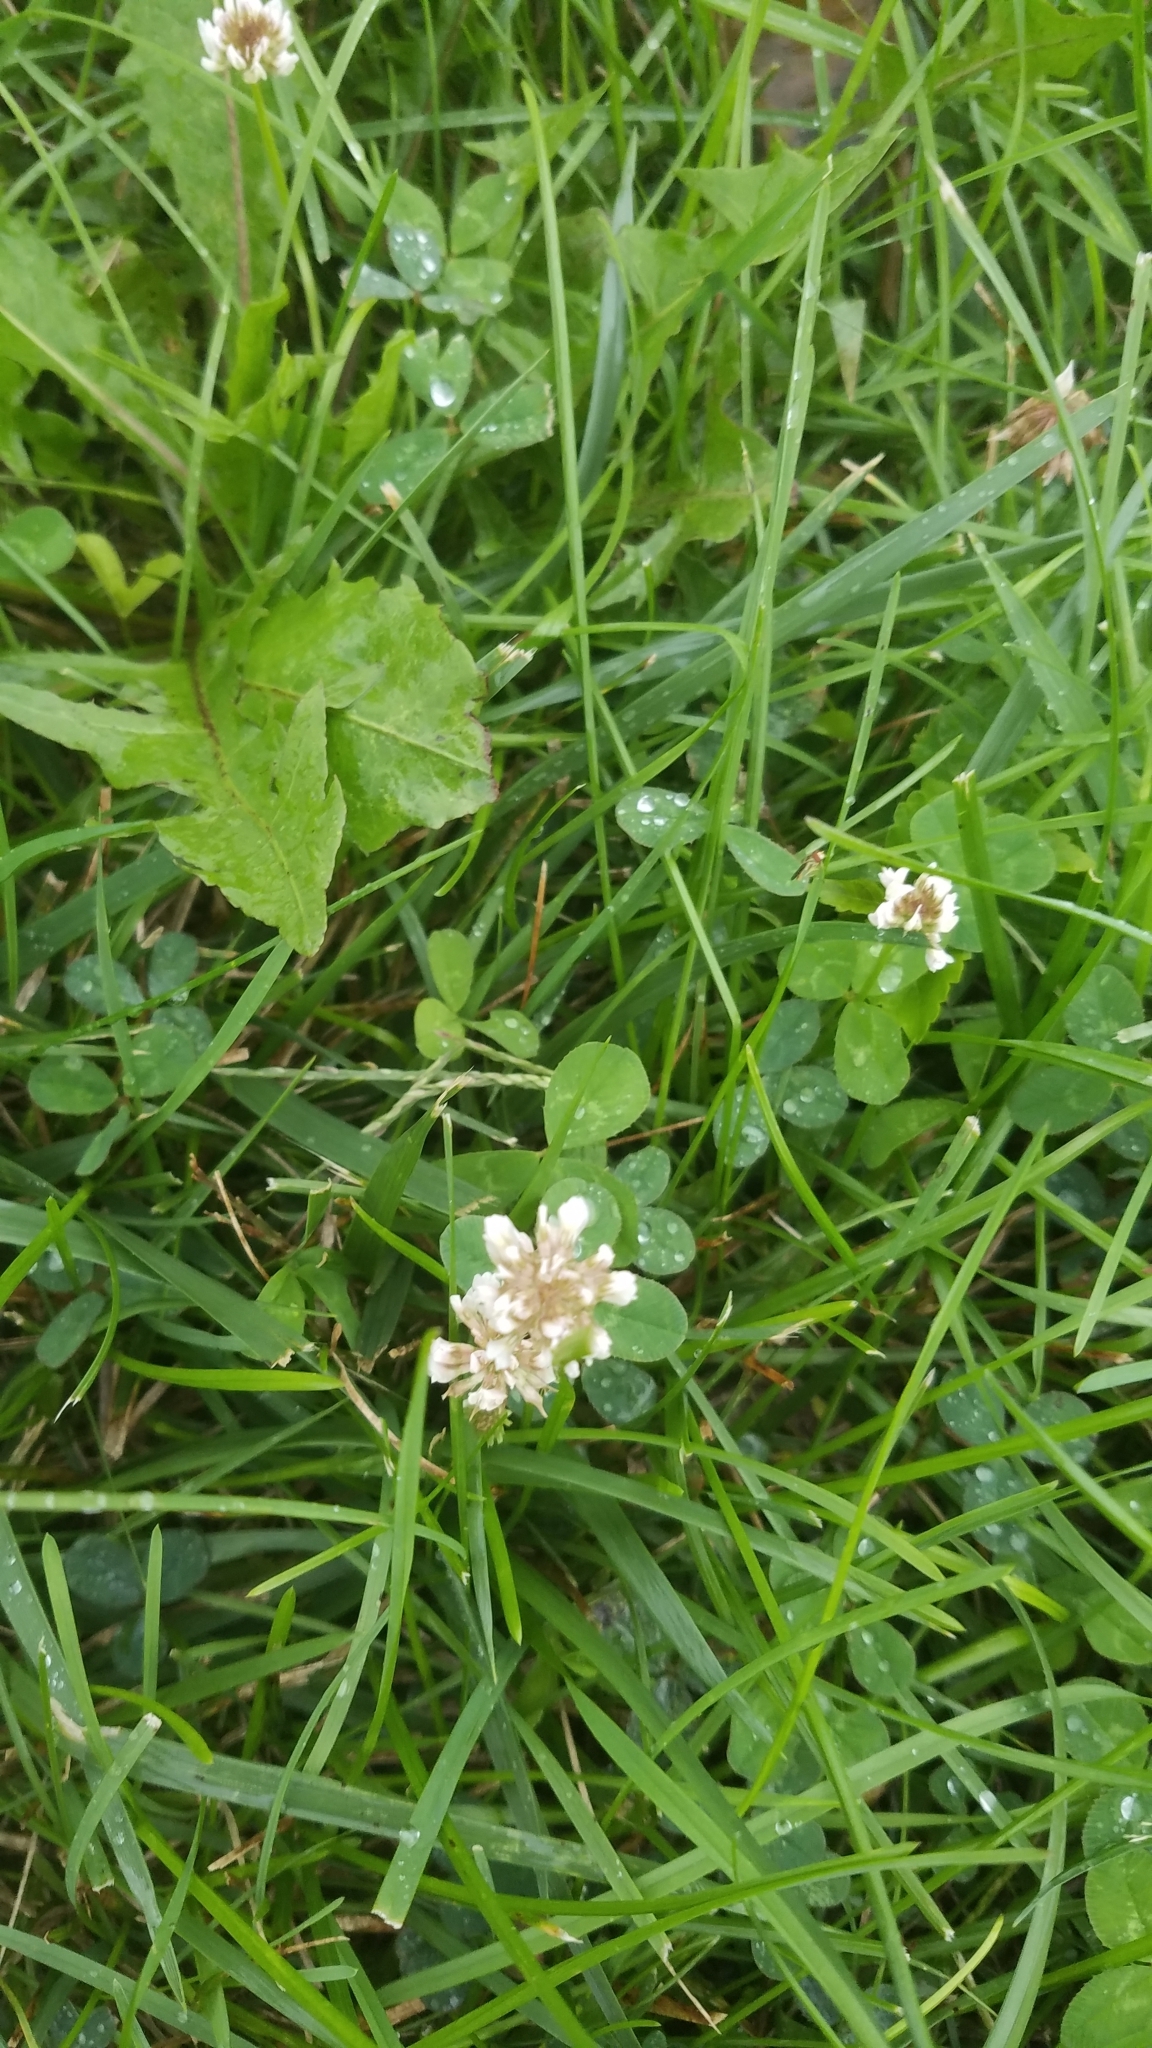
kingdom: Plantae
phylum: Tracheophyta
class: Magnoliopsida
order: Fabales
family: Fabaceae
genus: Trifolium
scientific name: Trifolium repens
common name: White clover
